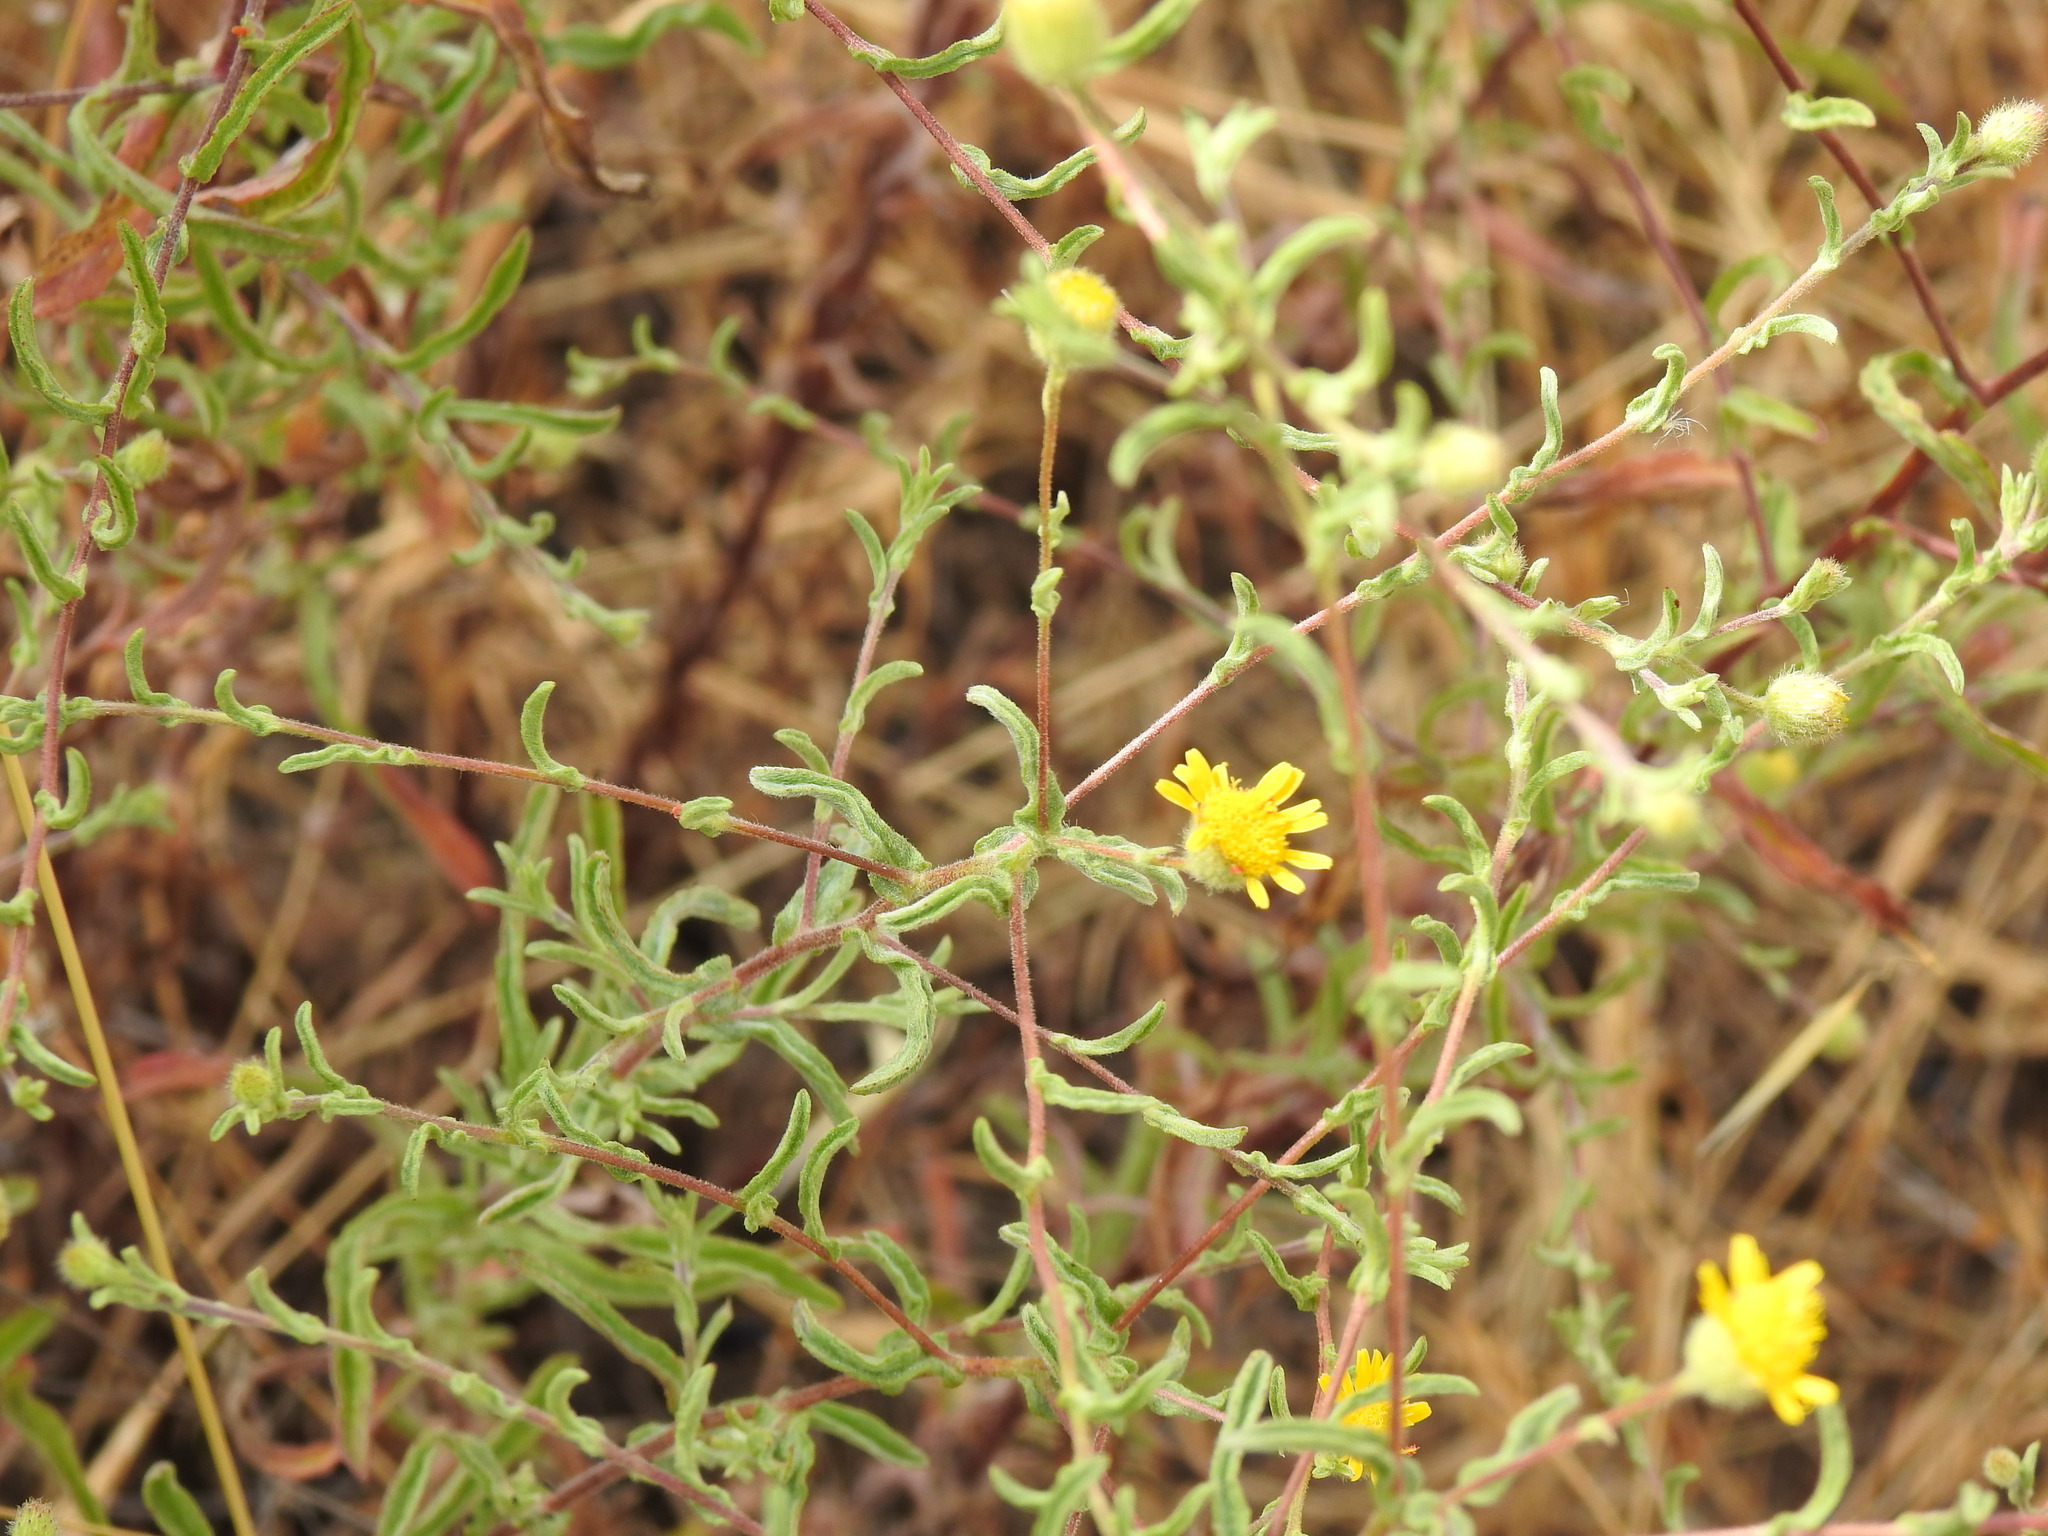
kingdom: Plantae
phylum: Tracheophyta
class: Magnoliopsida
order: Asterales
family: Asteraceae
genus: Pulicaria
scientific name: Pulicaria paludosa
